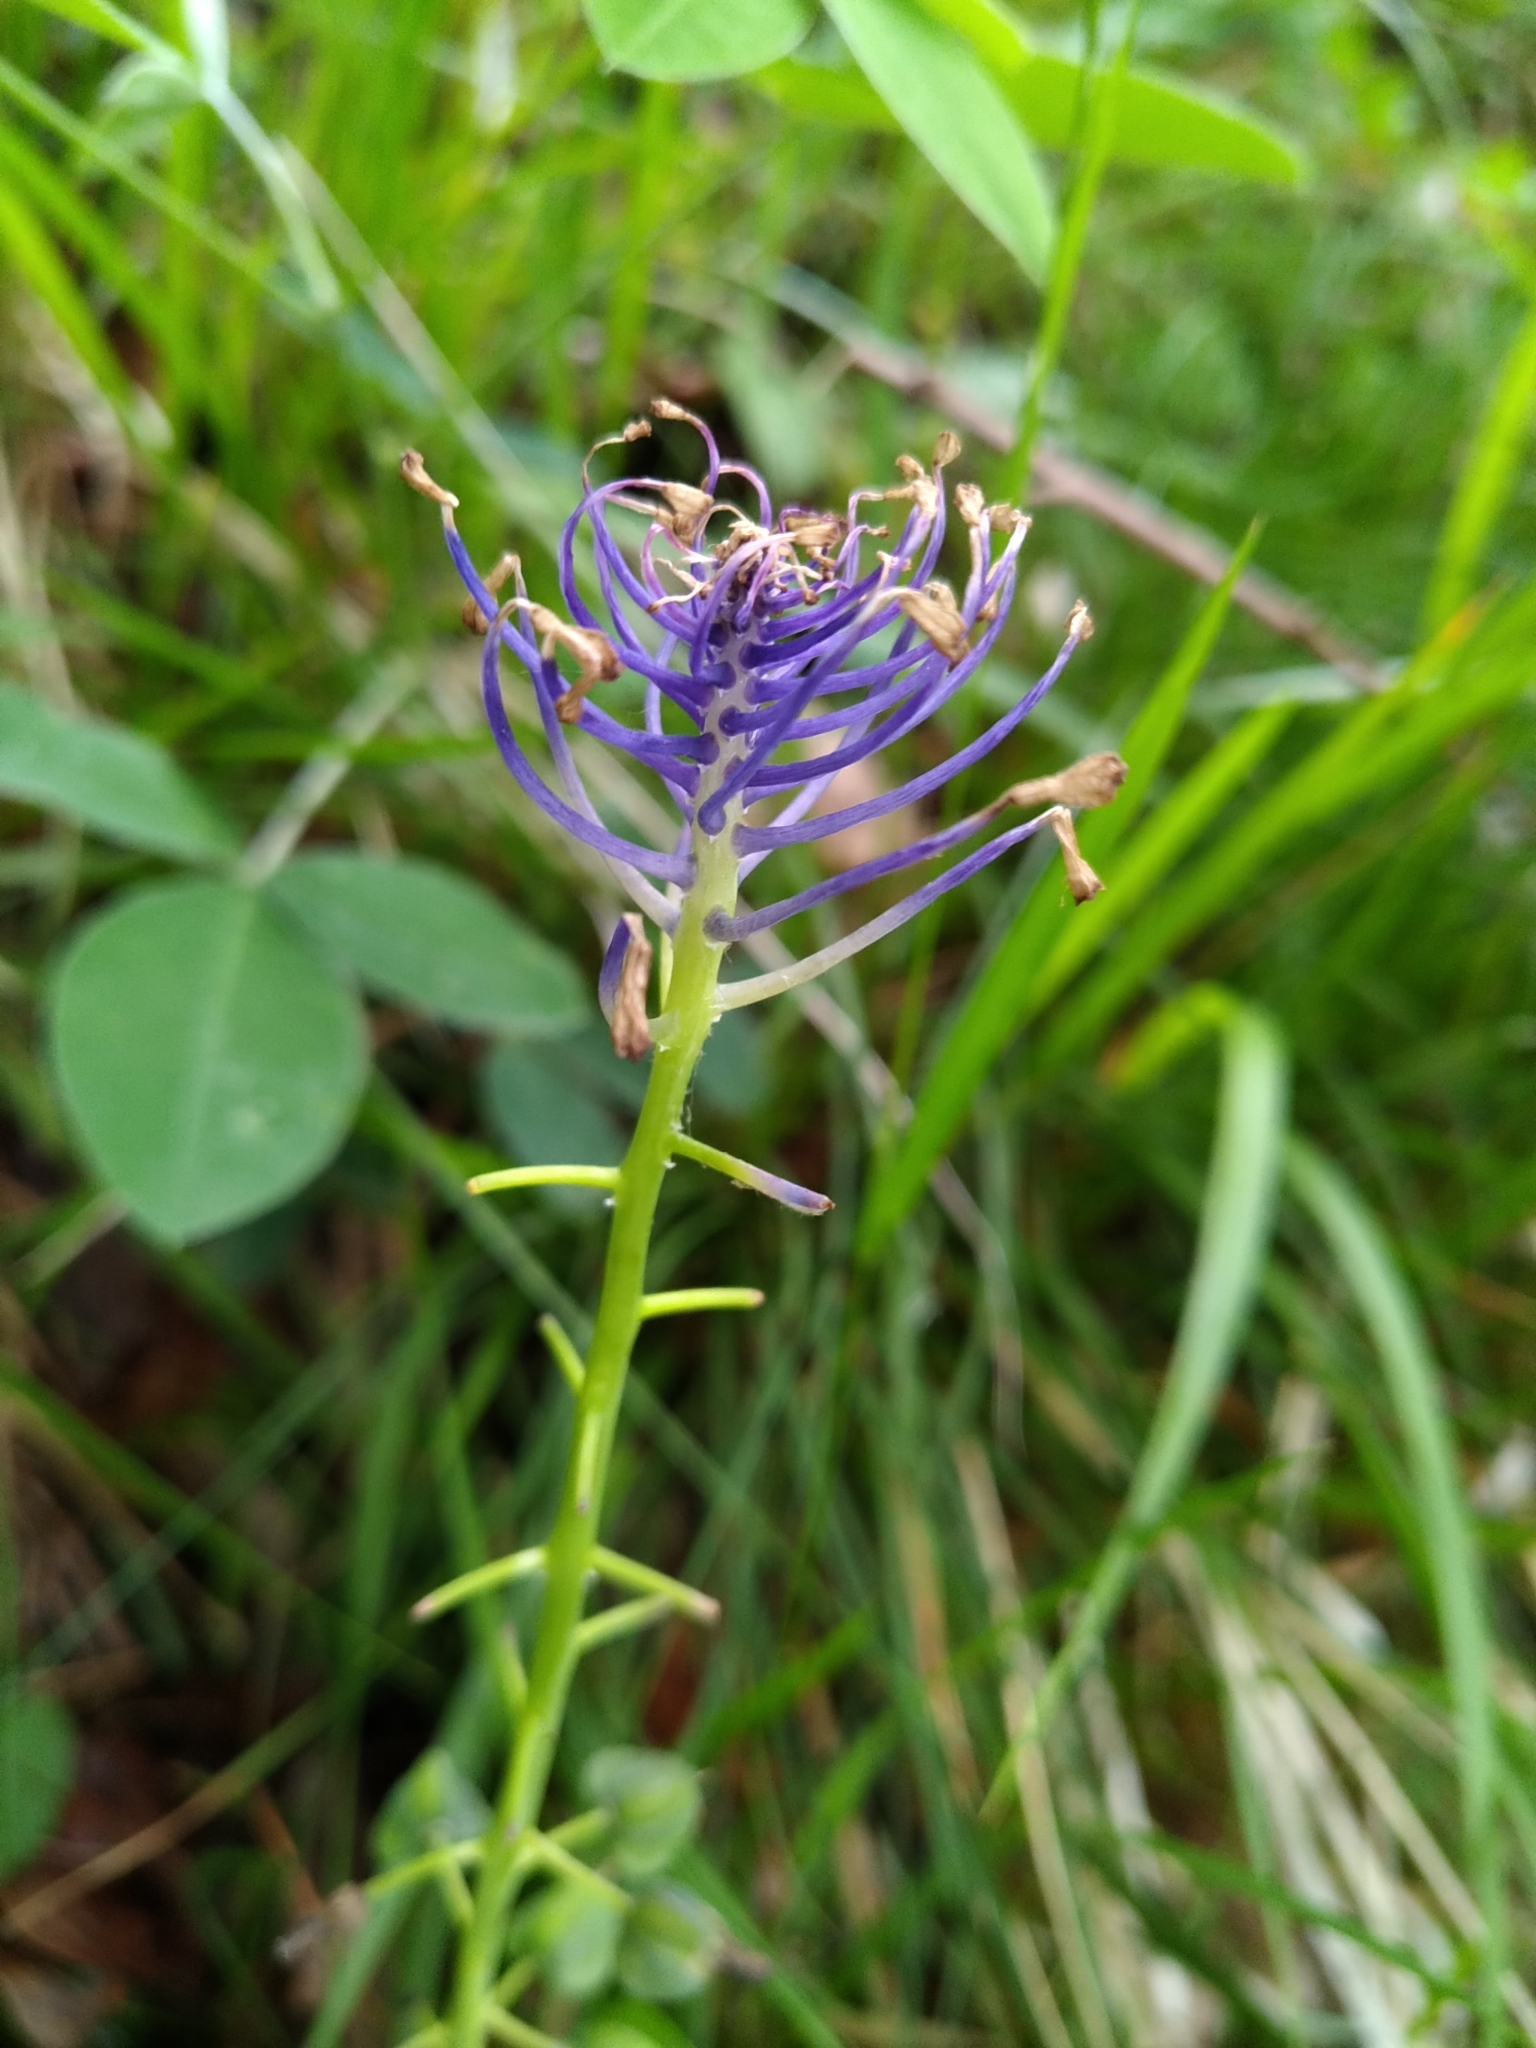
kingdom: Plantae
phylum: Tracheophyta
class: Liliopsida
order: Asparagales
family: Asparagaceae
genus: Muscari
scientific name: Muscari comosum
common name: Tassel hyacinth
